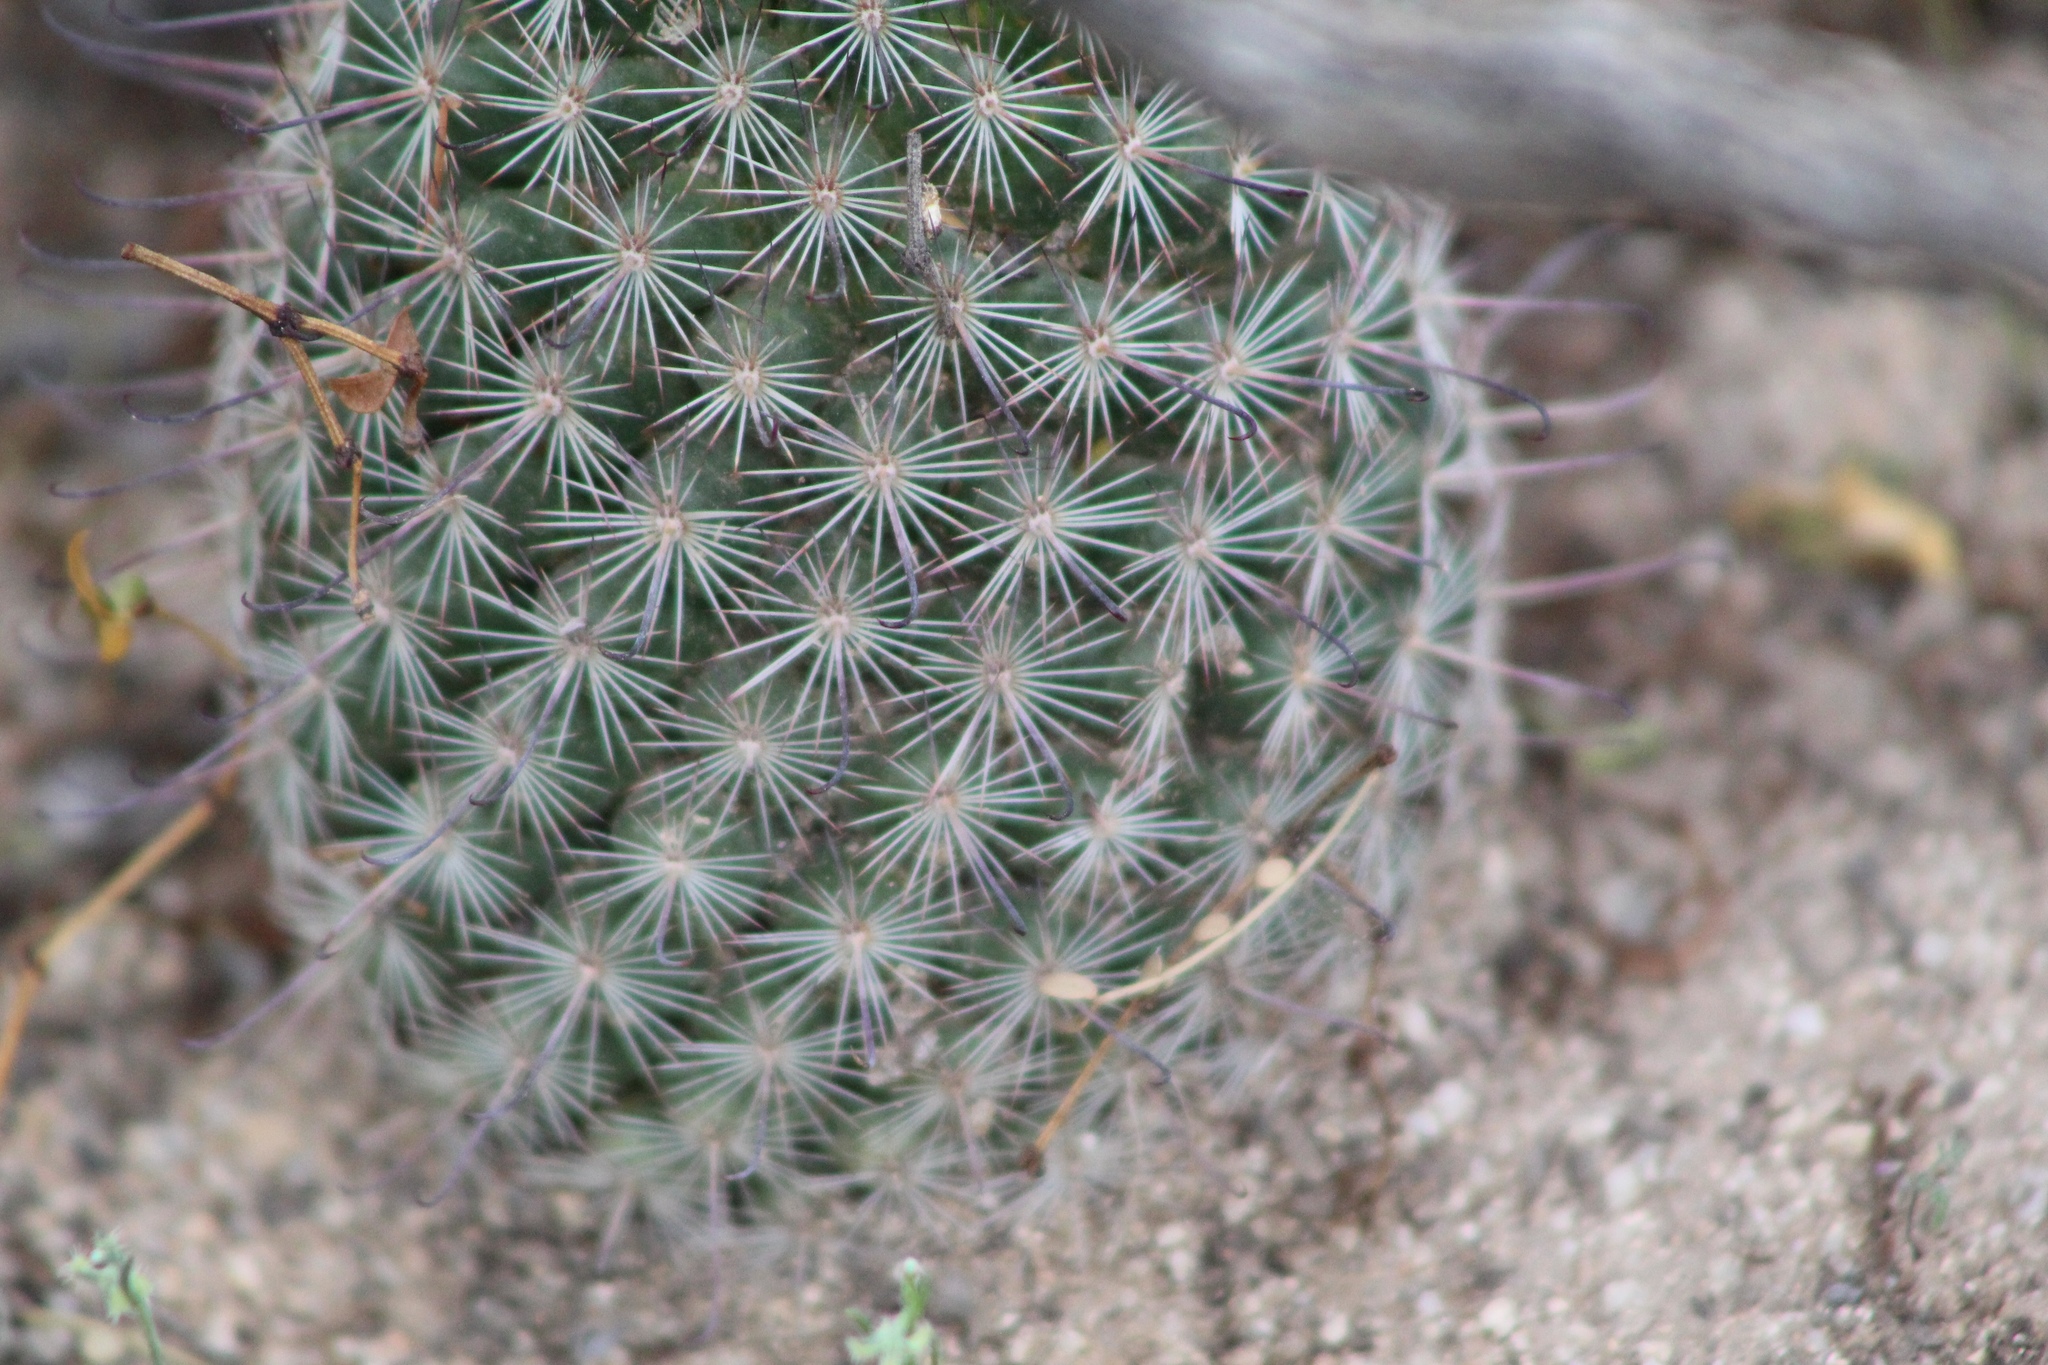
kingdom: Plantae
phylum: Tracheophyta
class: Magnoliopsida
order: Caryophyllales
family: Cactaceae
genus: Cochemiea
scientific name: Cochemiea grahamii
